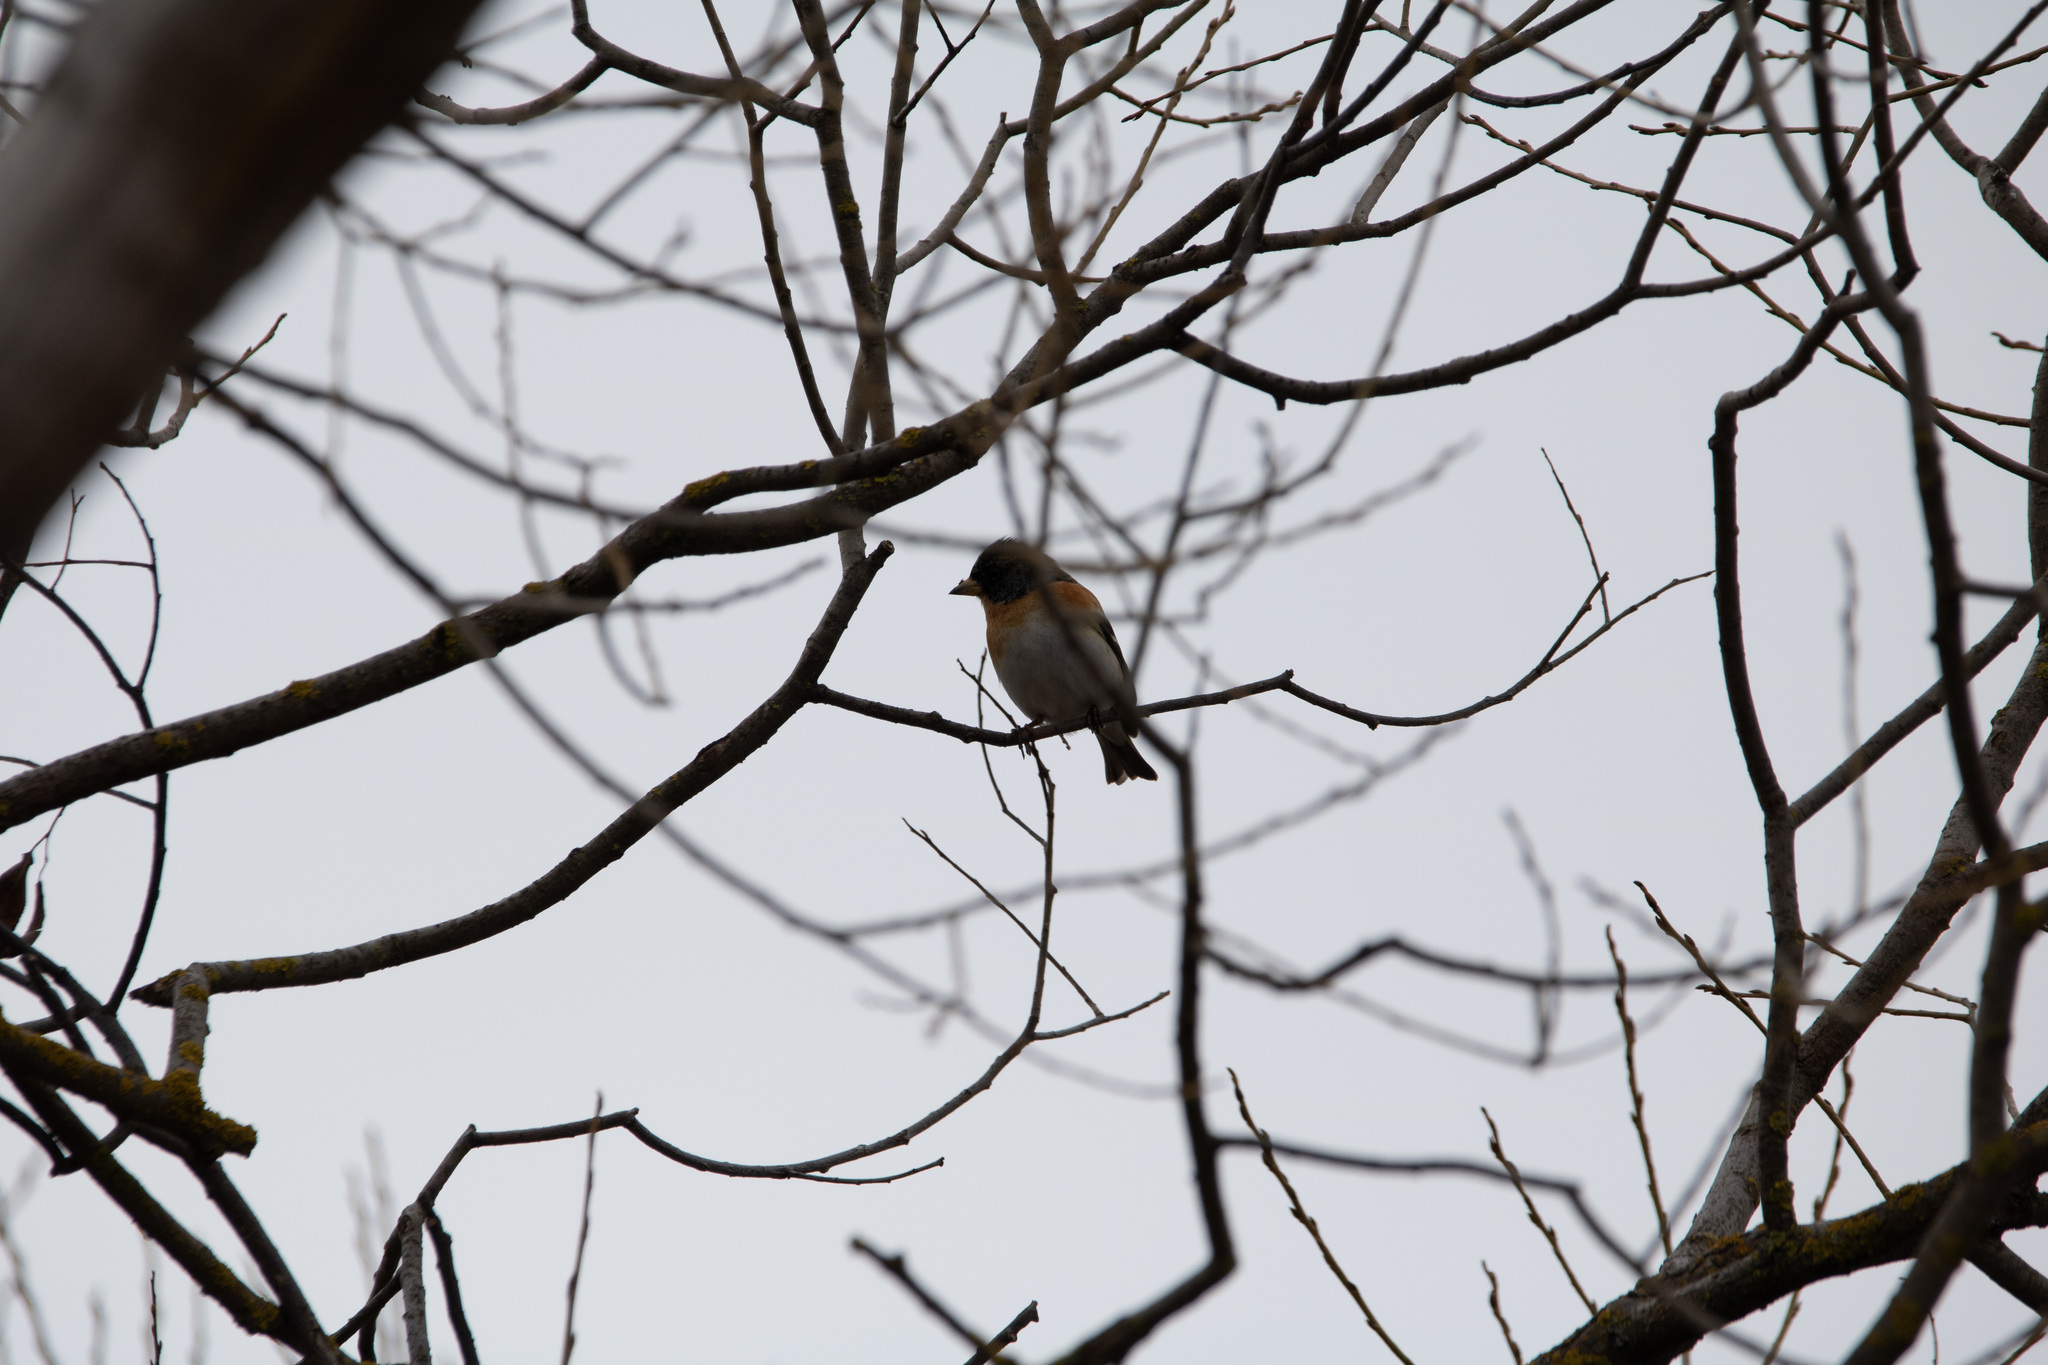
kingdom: Animalia
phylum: Chordata
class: Aves
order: Passeriformes
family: Fringillidae
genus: Fringilla
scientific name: Fringilla montifringilla
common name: Brambling
